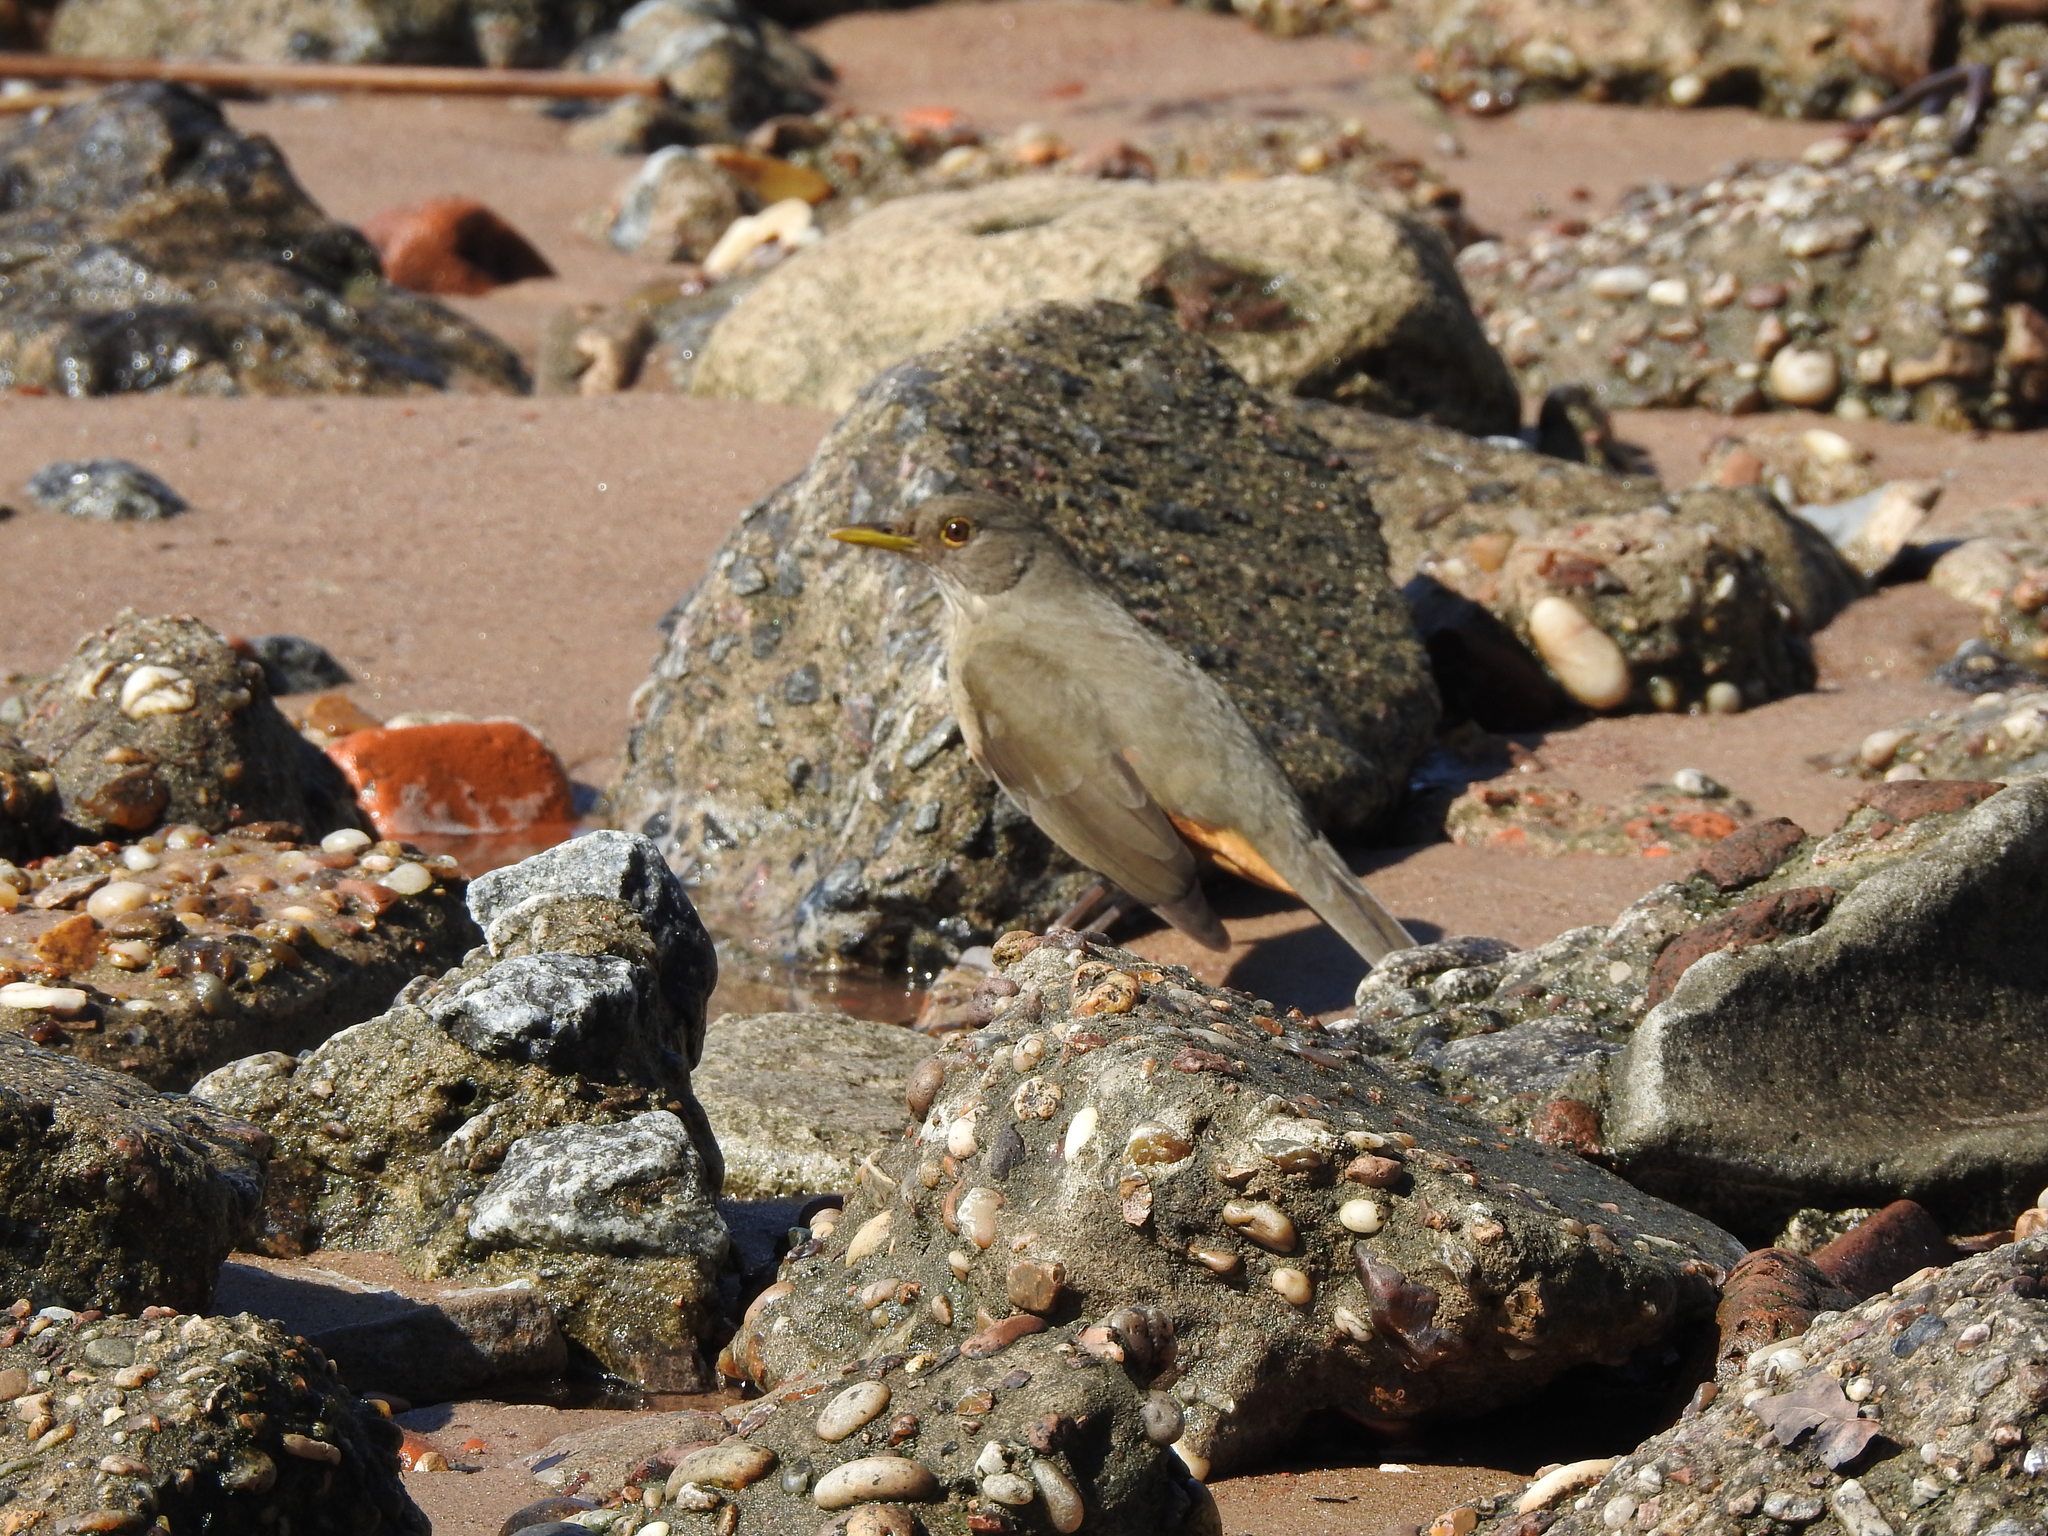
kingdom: Animalia
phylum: Chordata
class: Aves
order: Passeriformes
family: Turdidae
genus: Turdus
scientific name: Turdus rufiventris
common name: Rufous-bellied thrush
